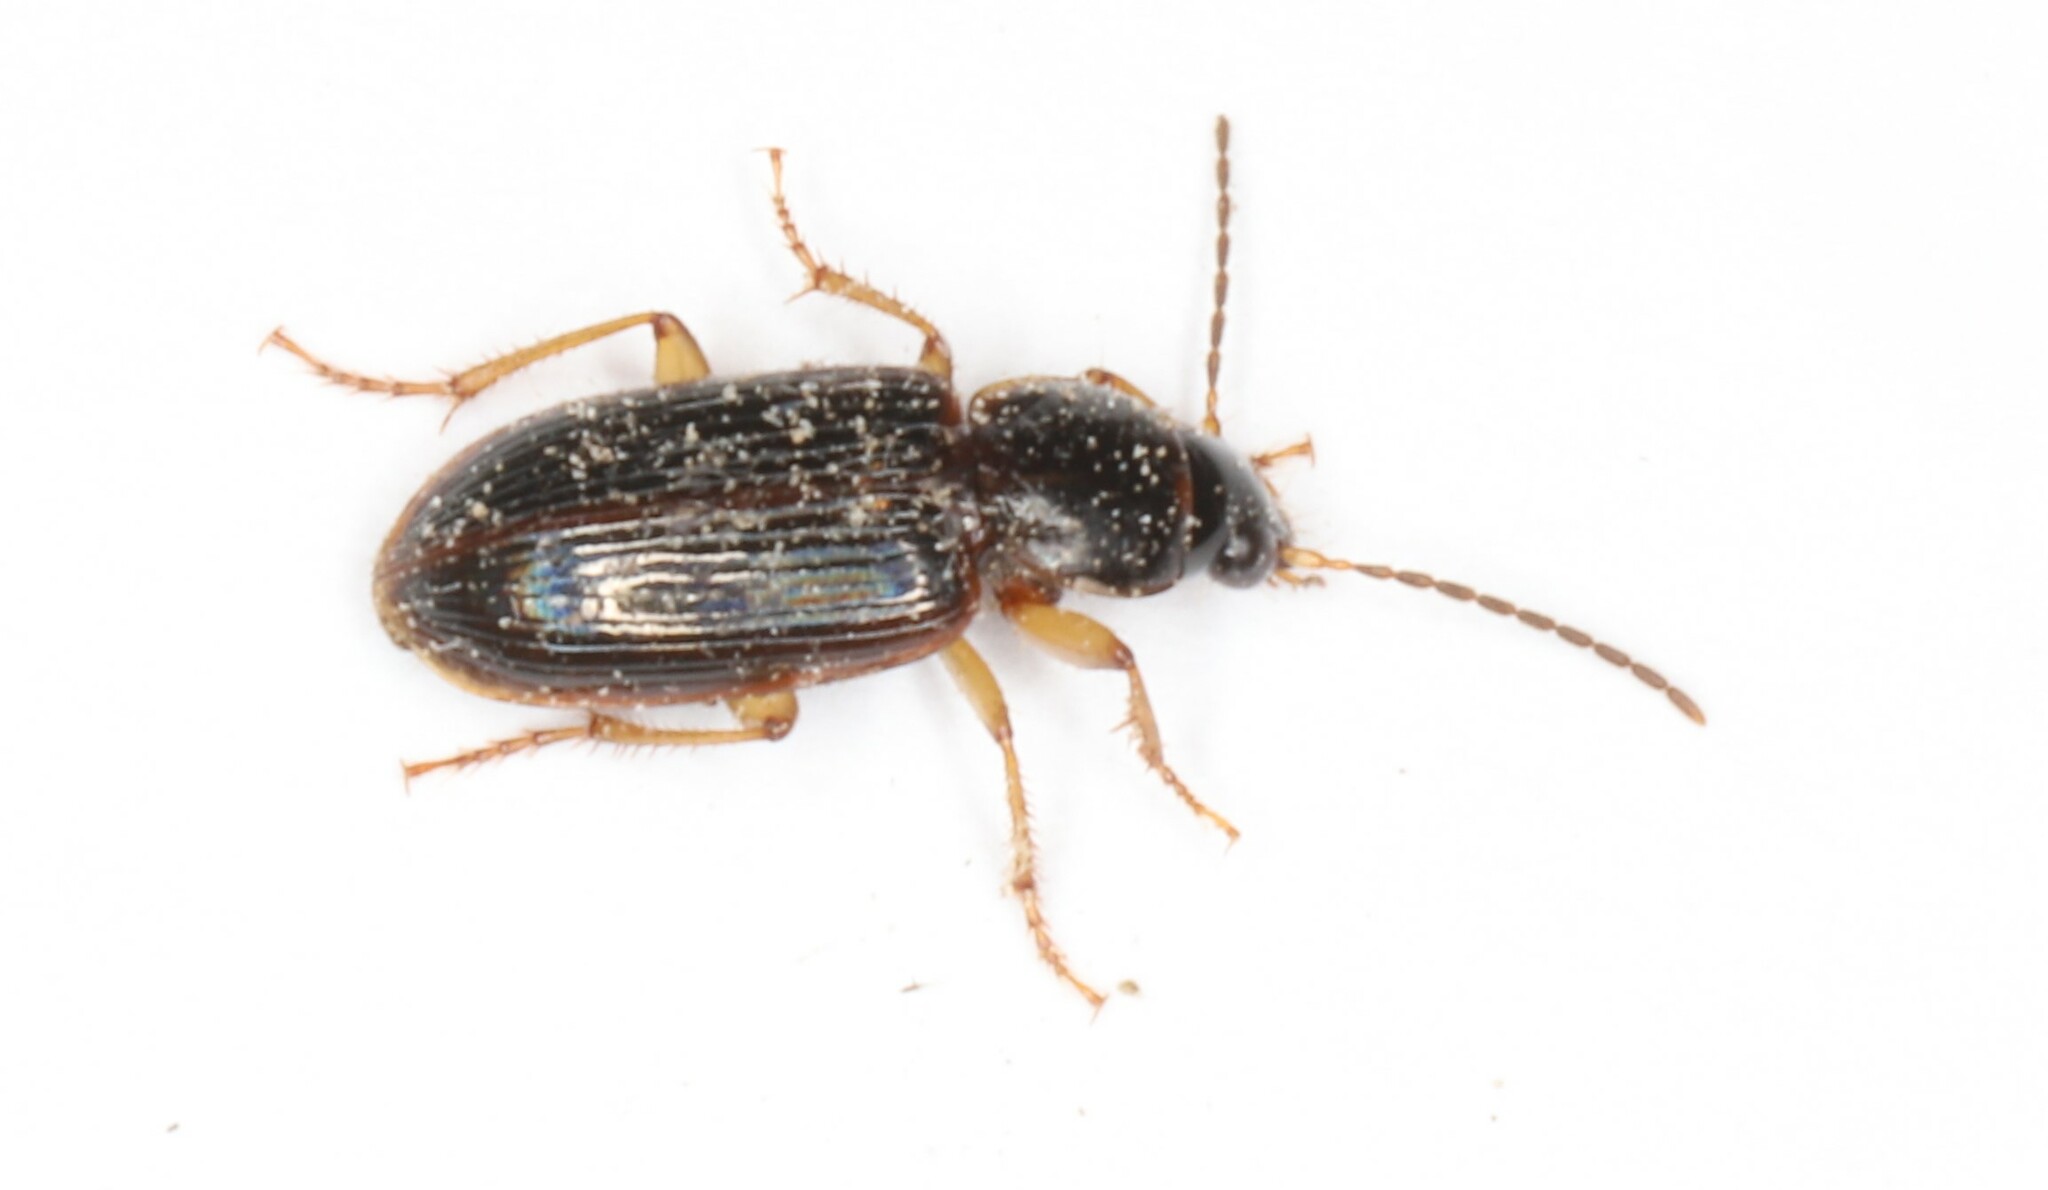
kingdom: Animalia
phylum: Arthropoda
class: Insecta
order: Coleoptera
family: Carabidae
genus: Stenolophus
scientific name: Stenolophus ochropezus
